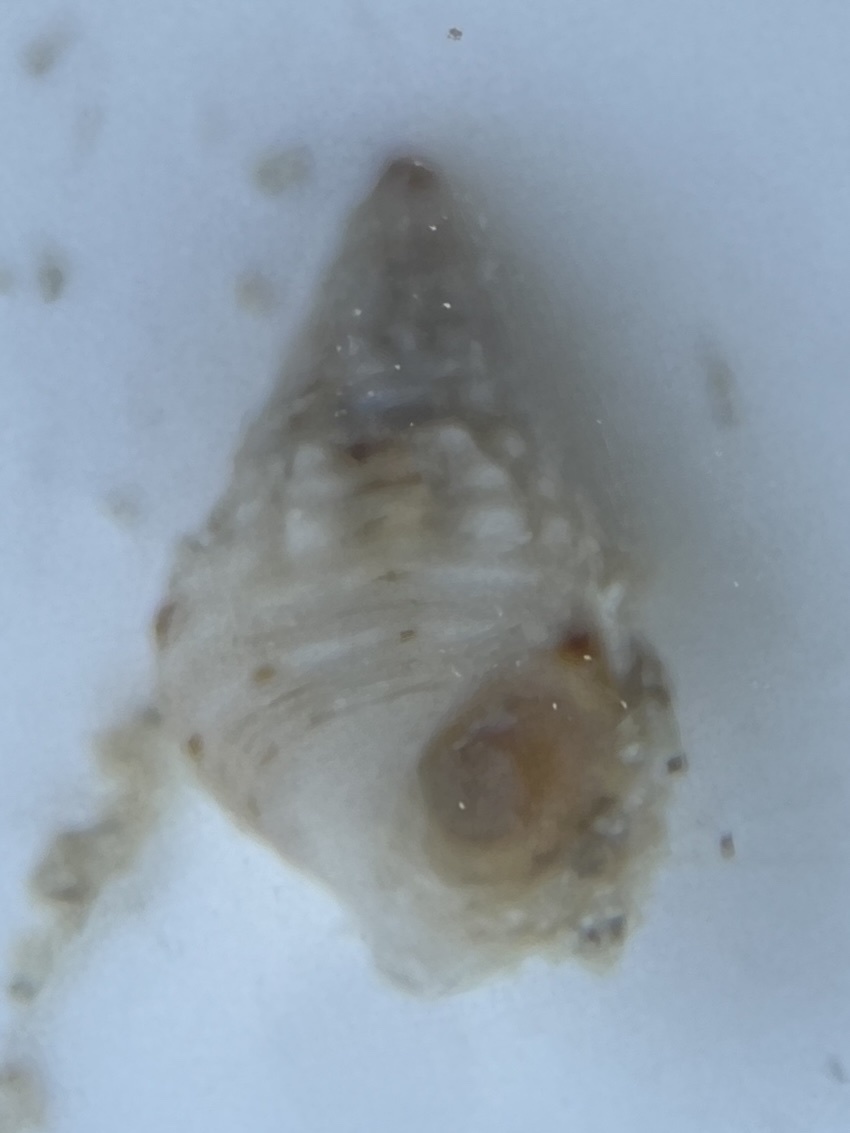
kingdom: Animalia
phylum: Mollusca
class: Gastropoda
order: Littorinimorpha
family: Littorinidae
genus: Cenchritis
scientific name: Cenchritis muricatus
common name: Beaded periwinkle
